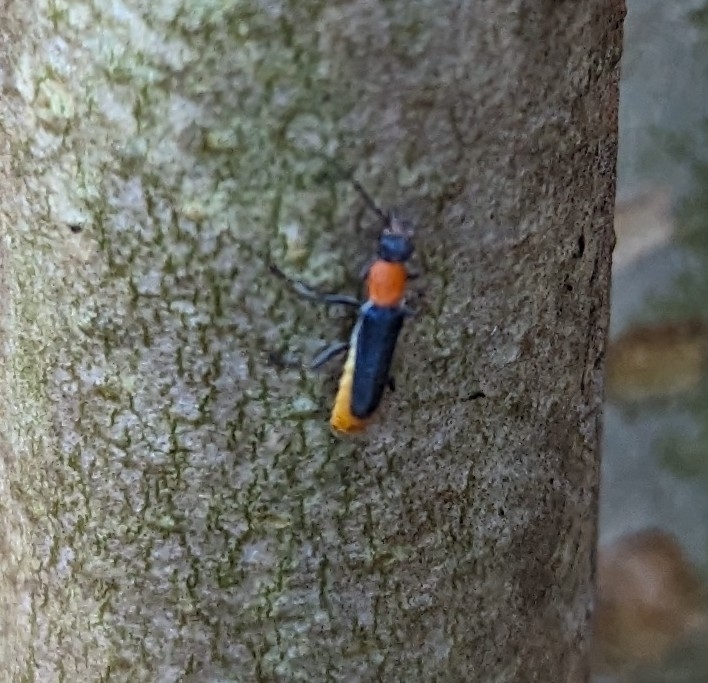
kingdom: Animalia
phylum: Arthropoda
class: Insecta
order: Coleoptera
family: Cantharidae
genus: Chauliognathus
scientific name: Chauliognathus
